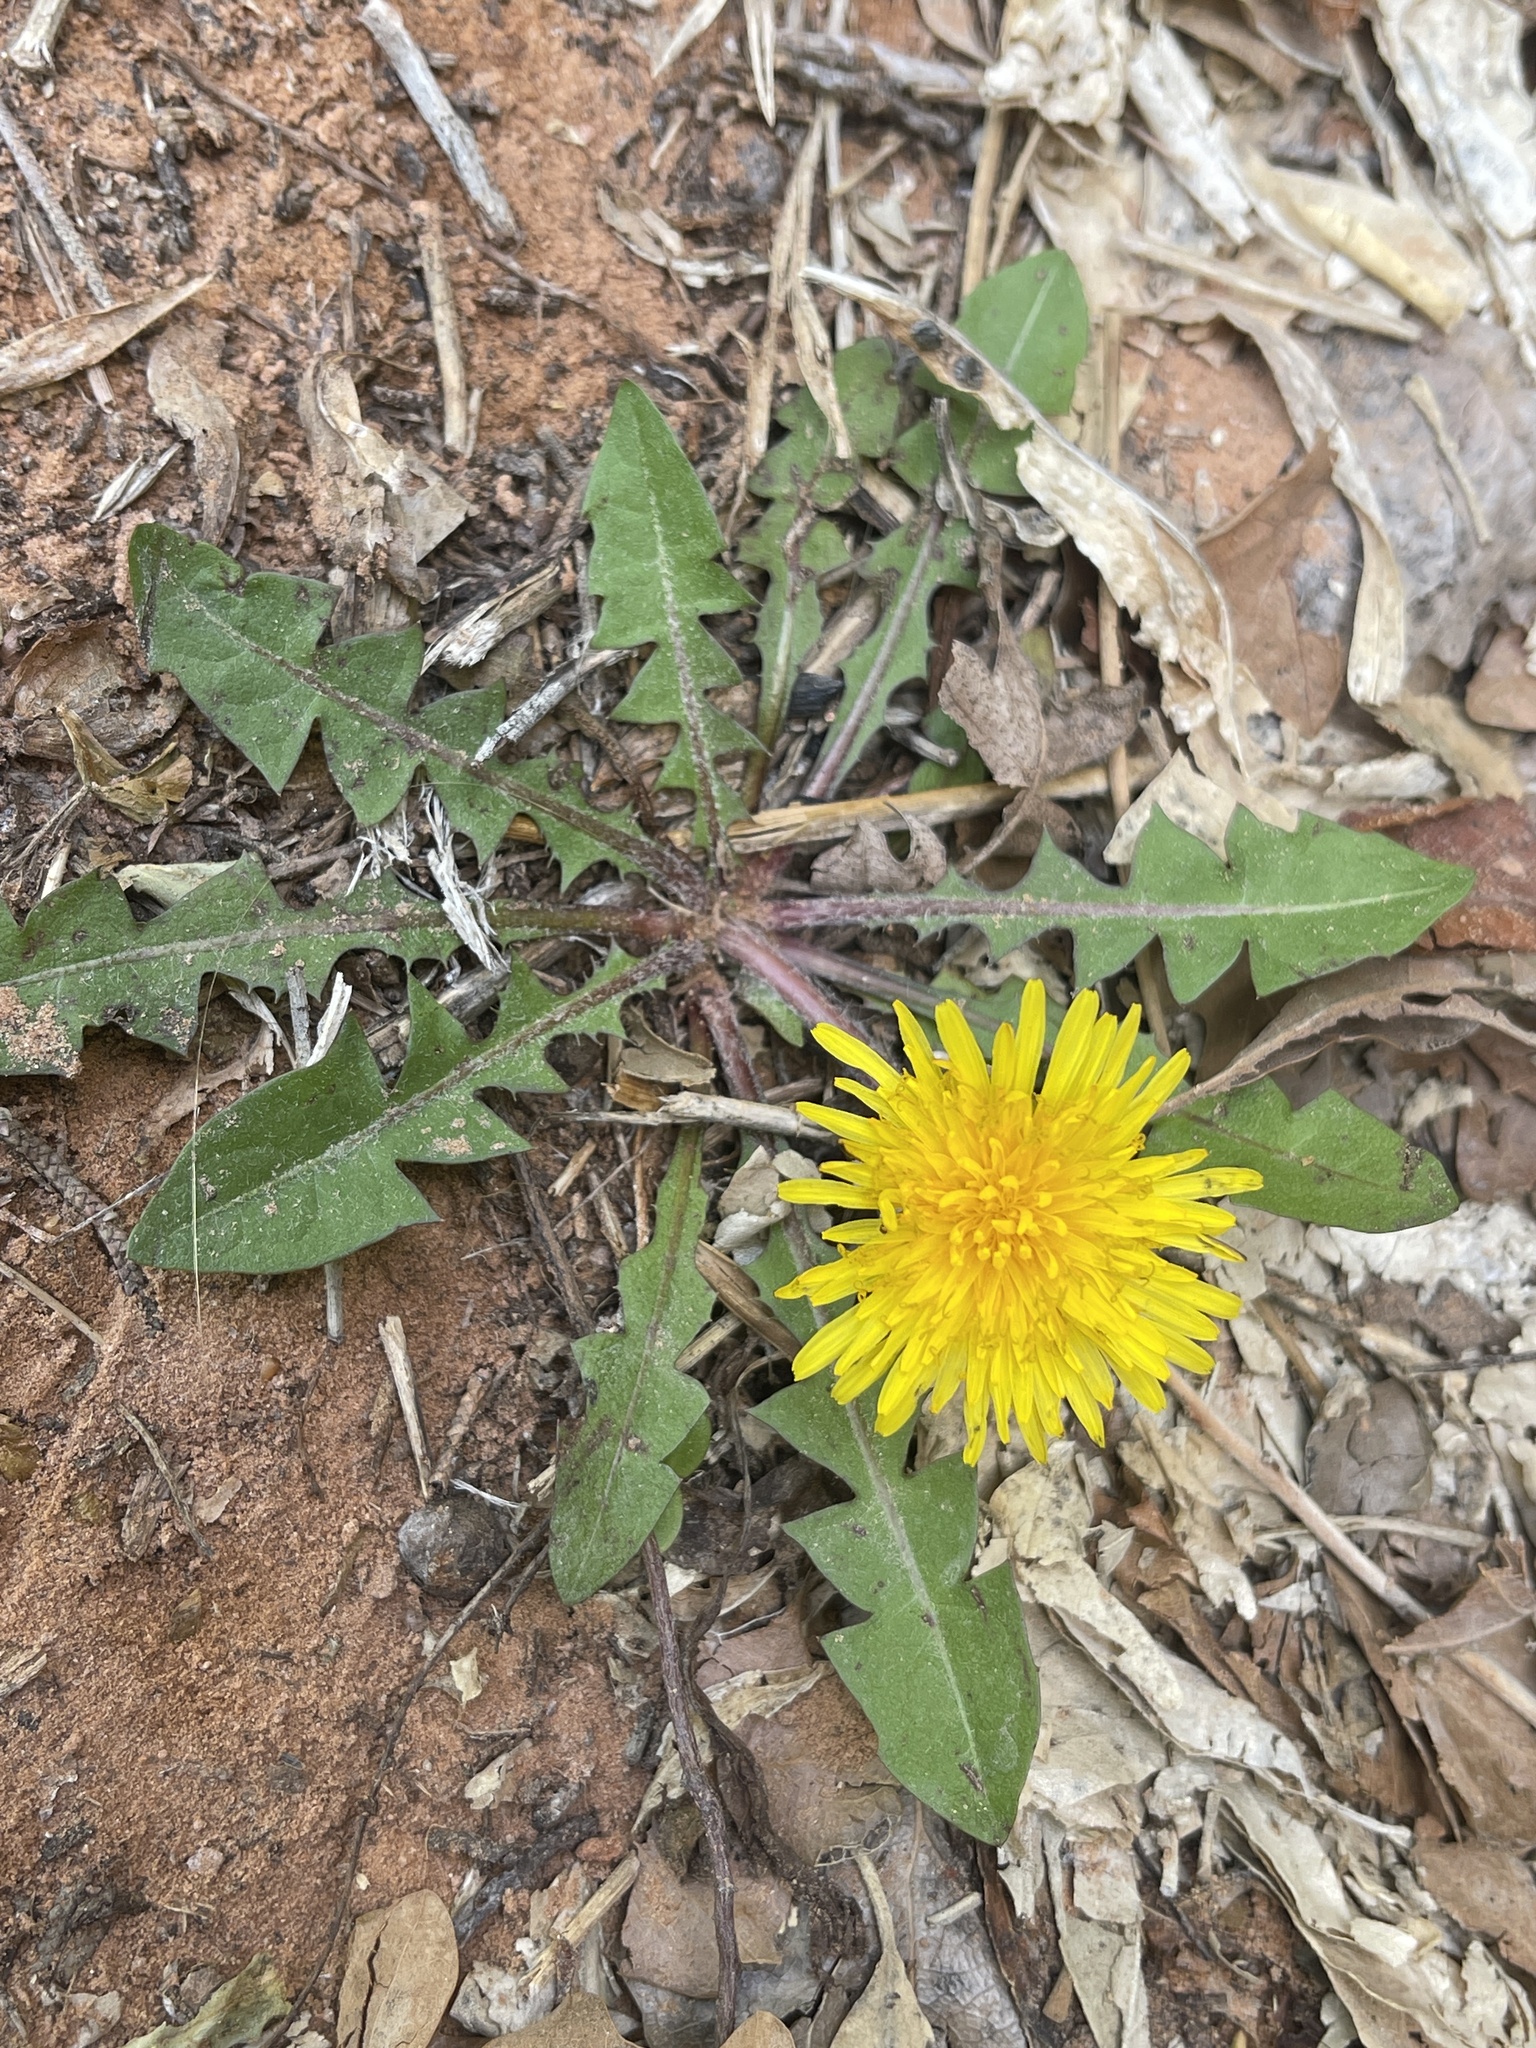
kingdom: Plantae
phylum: Tracheophyta
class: Magnoliopsida
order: Asterales
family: Asteraceae
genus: Taraxacum
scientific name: Taraxacum officinale
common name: Common dandelion
